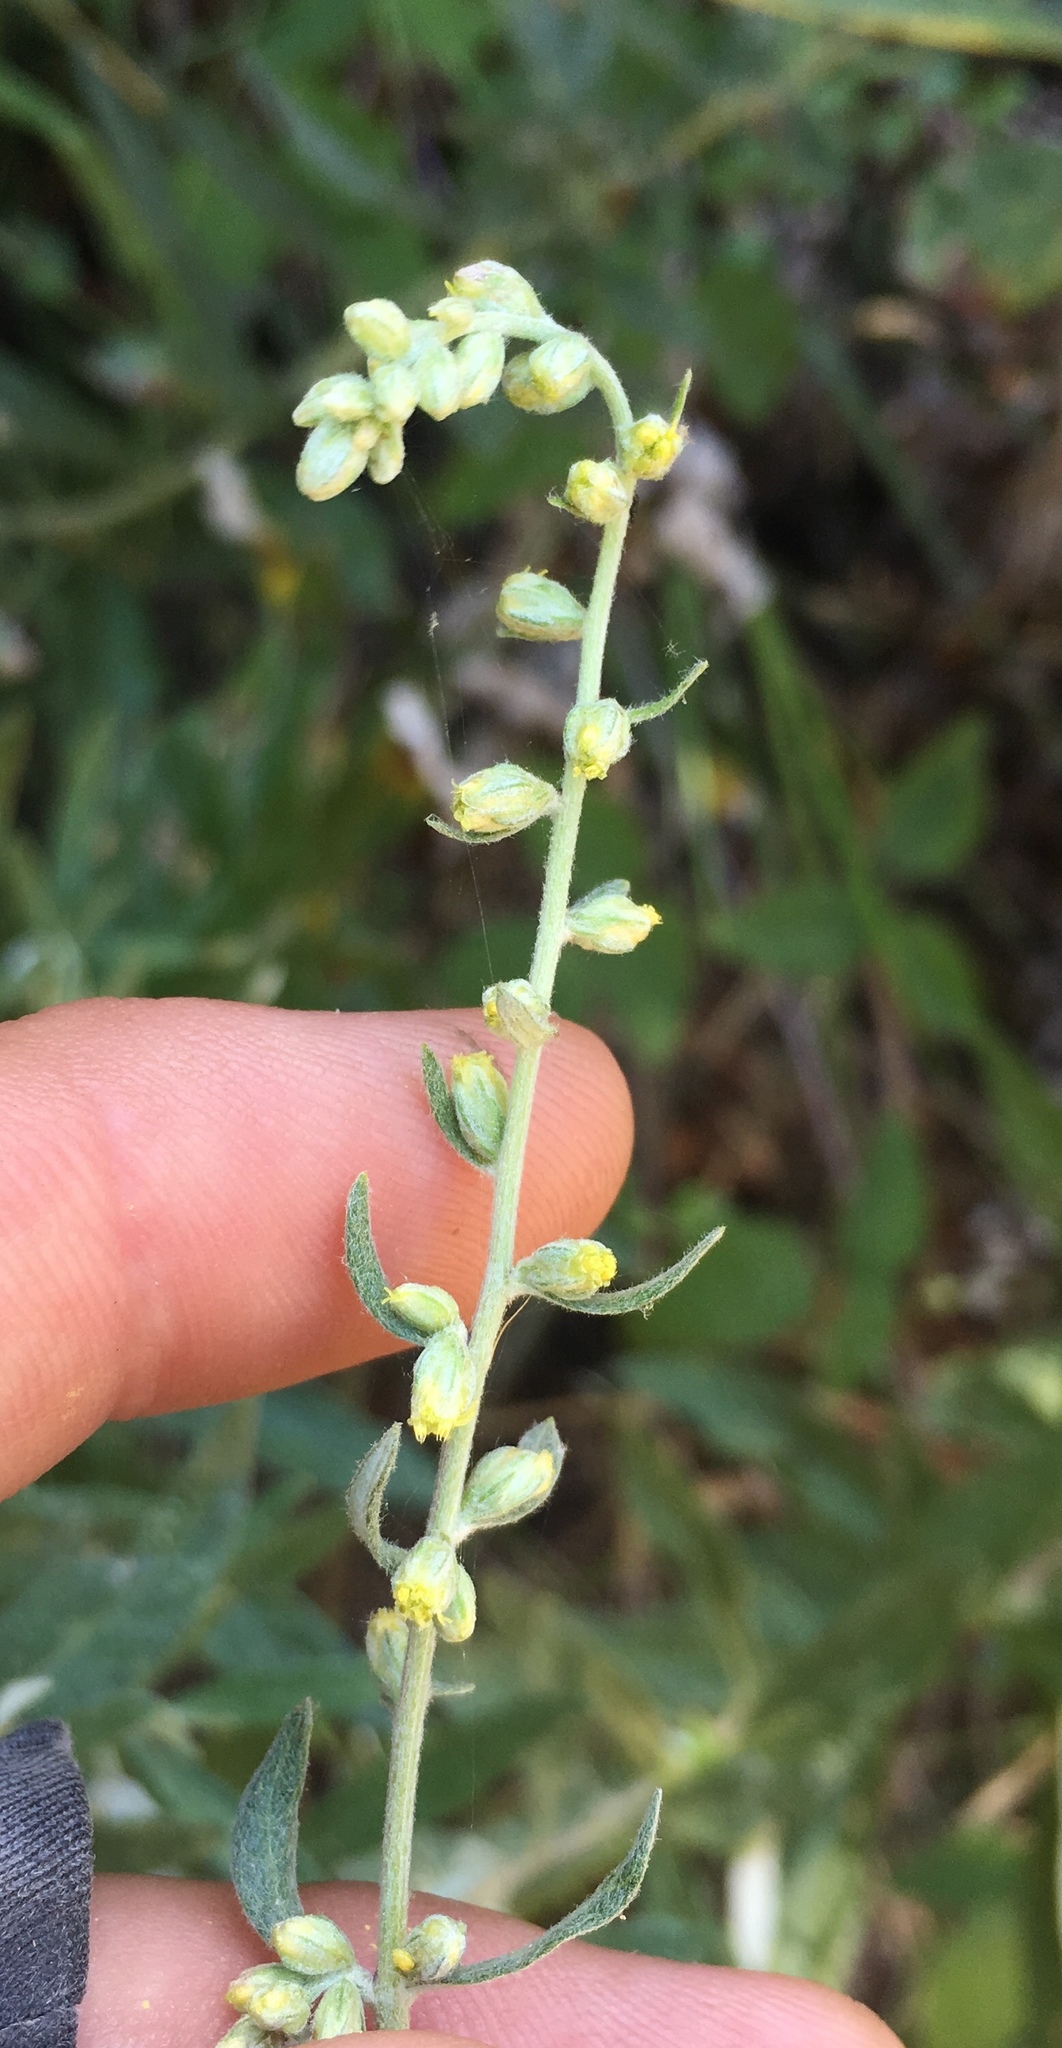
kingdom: Plantae
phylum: Tracheophyta
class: Magnoliopsida
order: Asterales
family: Asteraceae
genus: Artemisia
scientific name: Artemisia douglasiana
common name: Northwest mugwort
